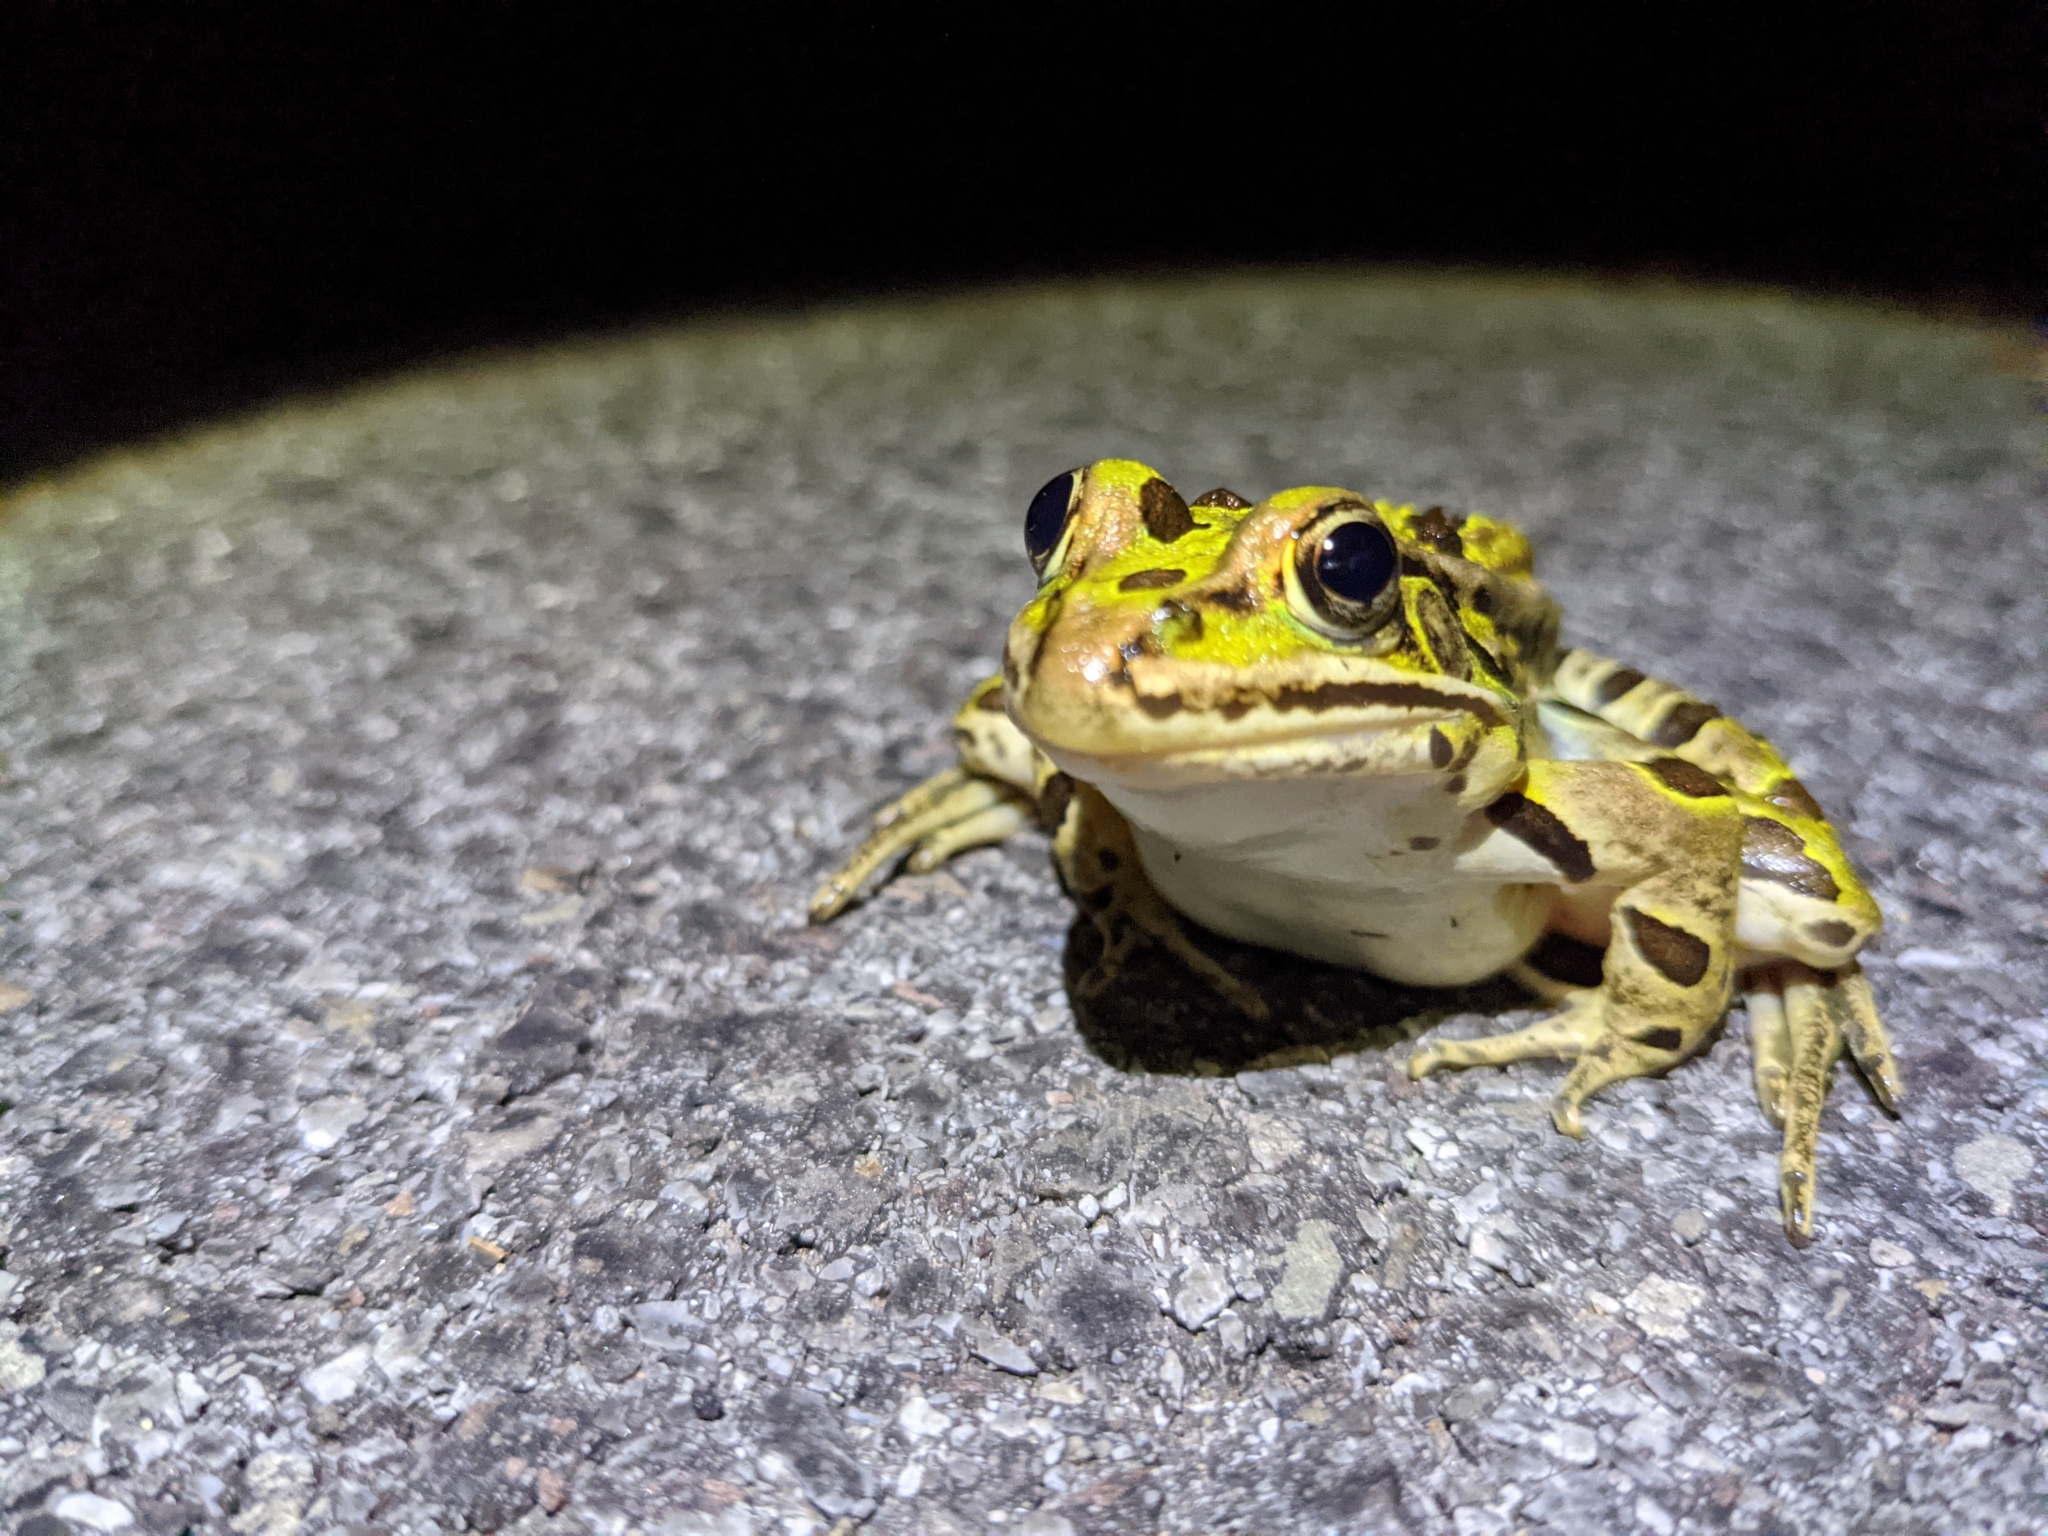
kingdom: Animalia
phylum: Chordata
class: Amphibia
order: Anura
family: Ranidae
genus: Lithobates
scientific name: Lithobates pipiens
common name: Northern leopard frog
